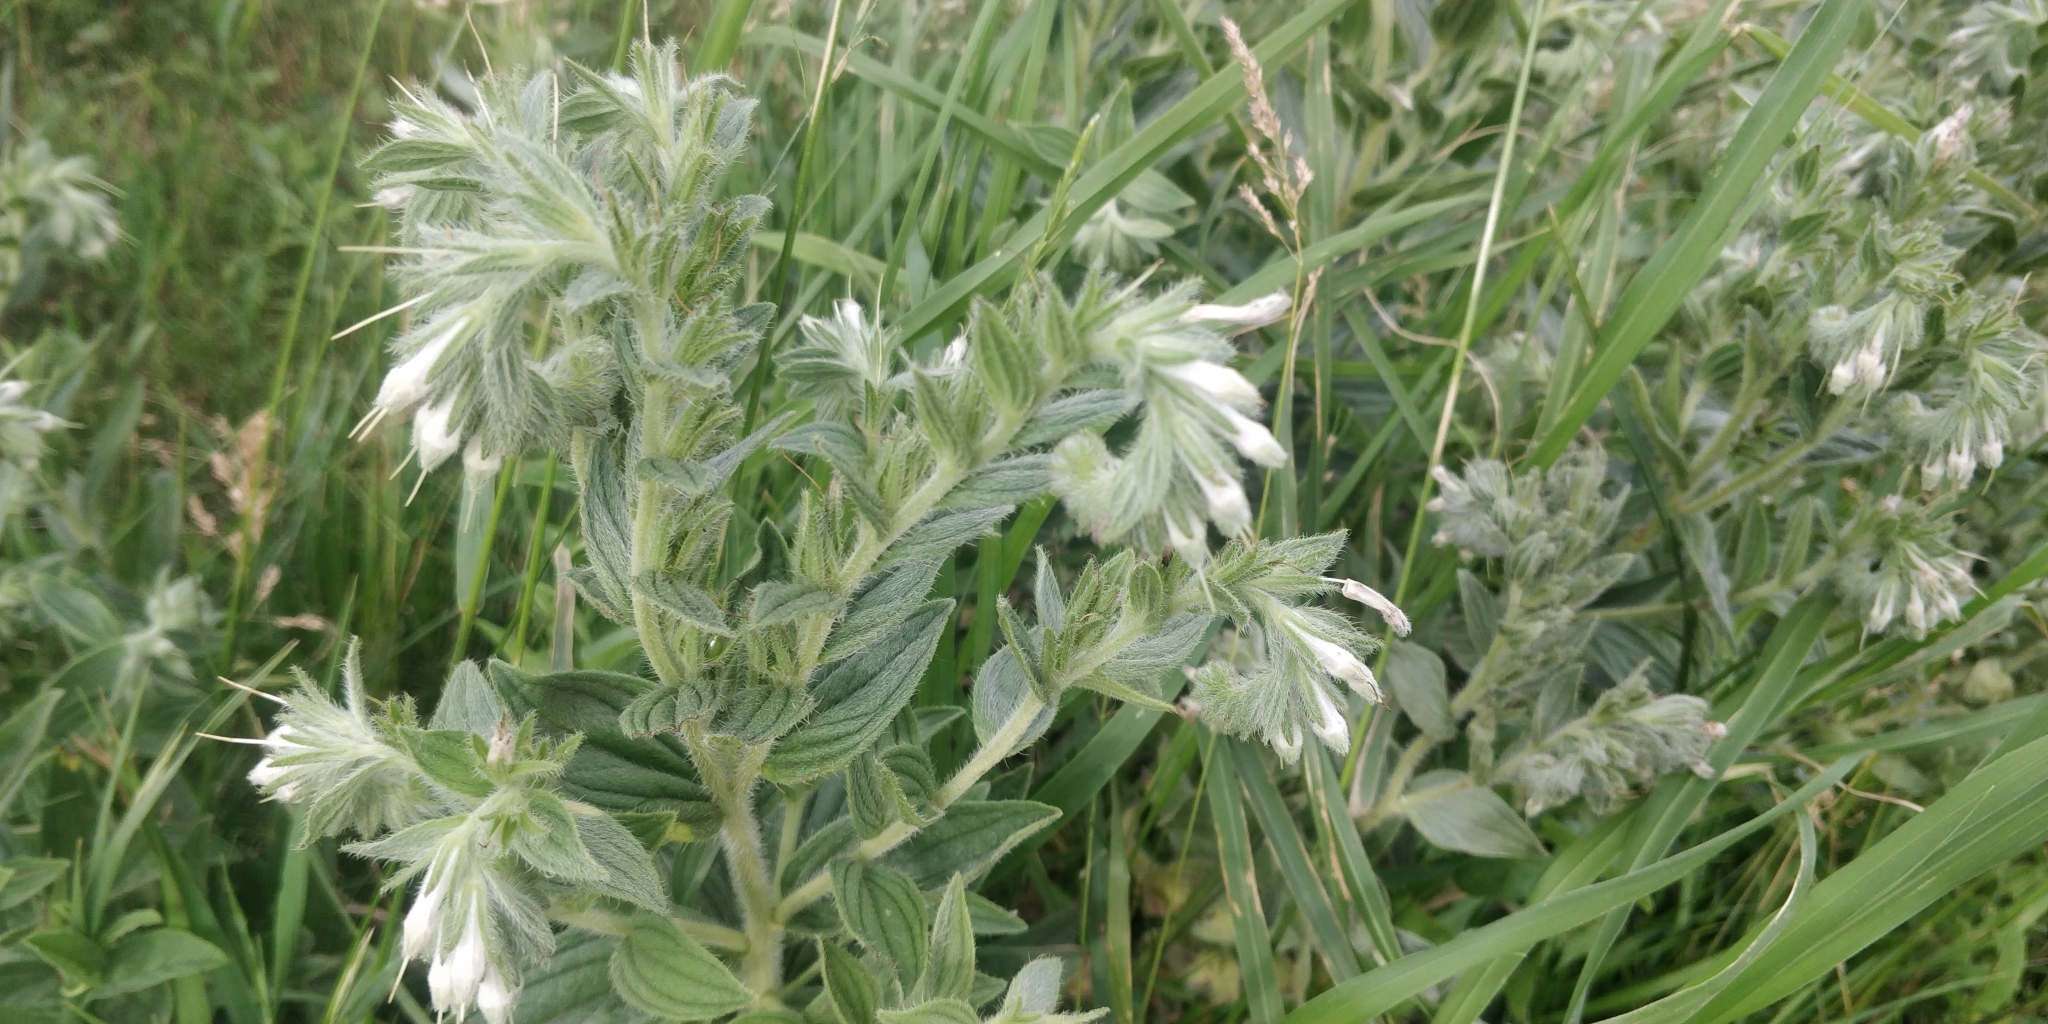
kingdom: Plantae
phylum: Tracheophyta
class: Magnoliopsida
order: Boraginales
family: Boraginaceae
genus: Lithospermum
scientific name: Lithospermum occidentale
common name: Western false gromwell
